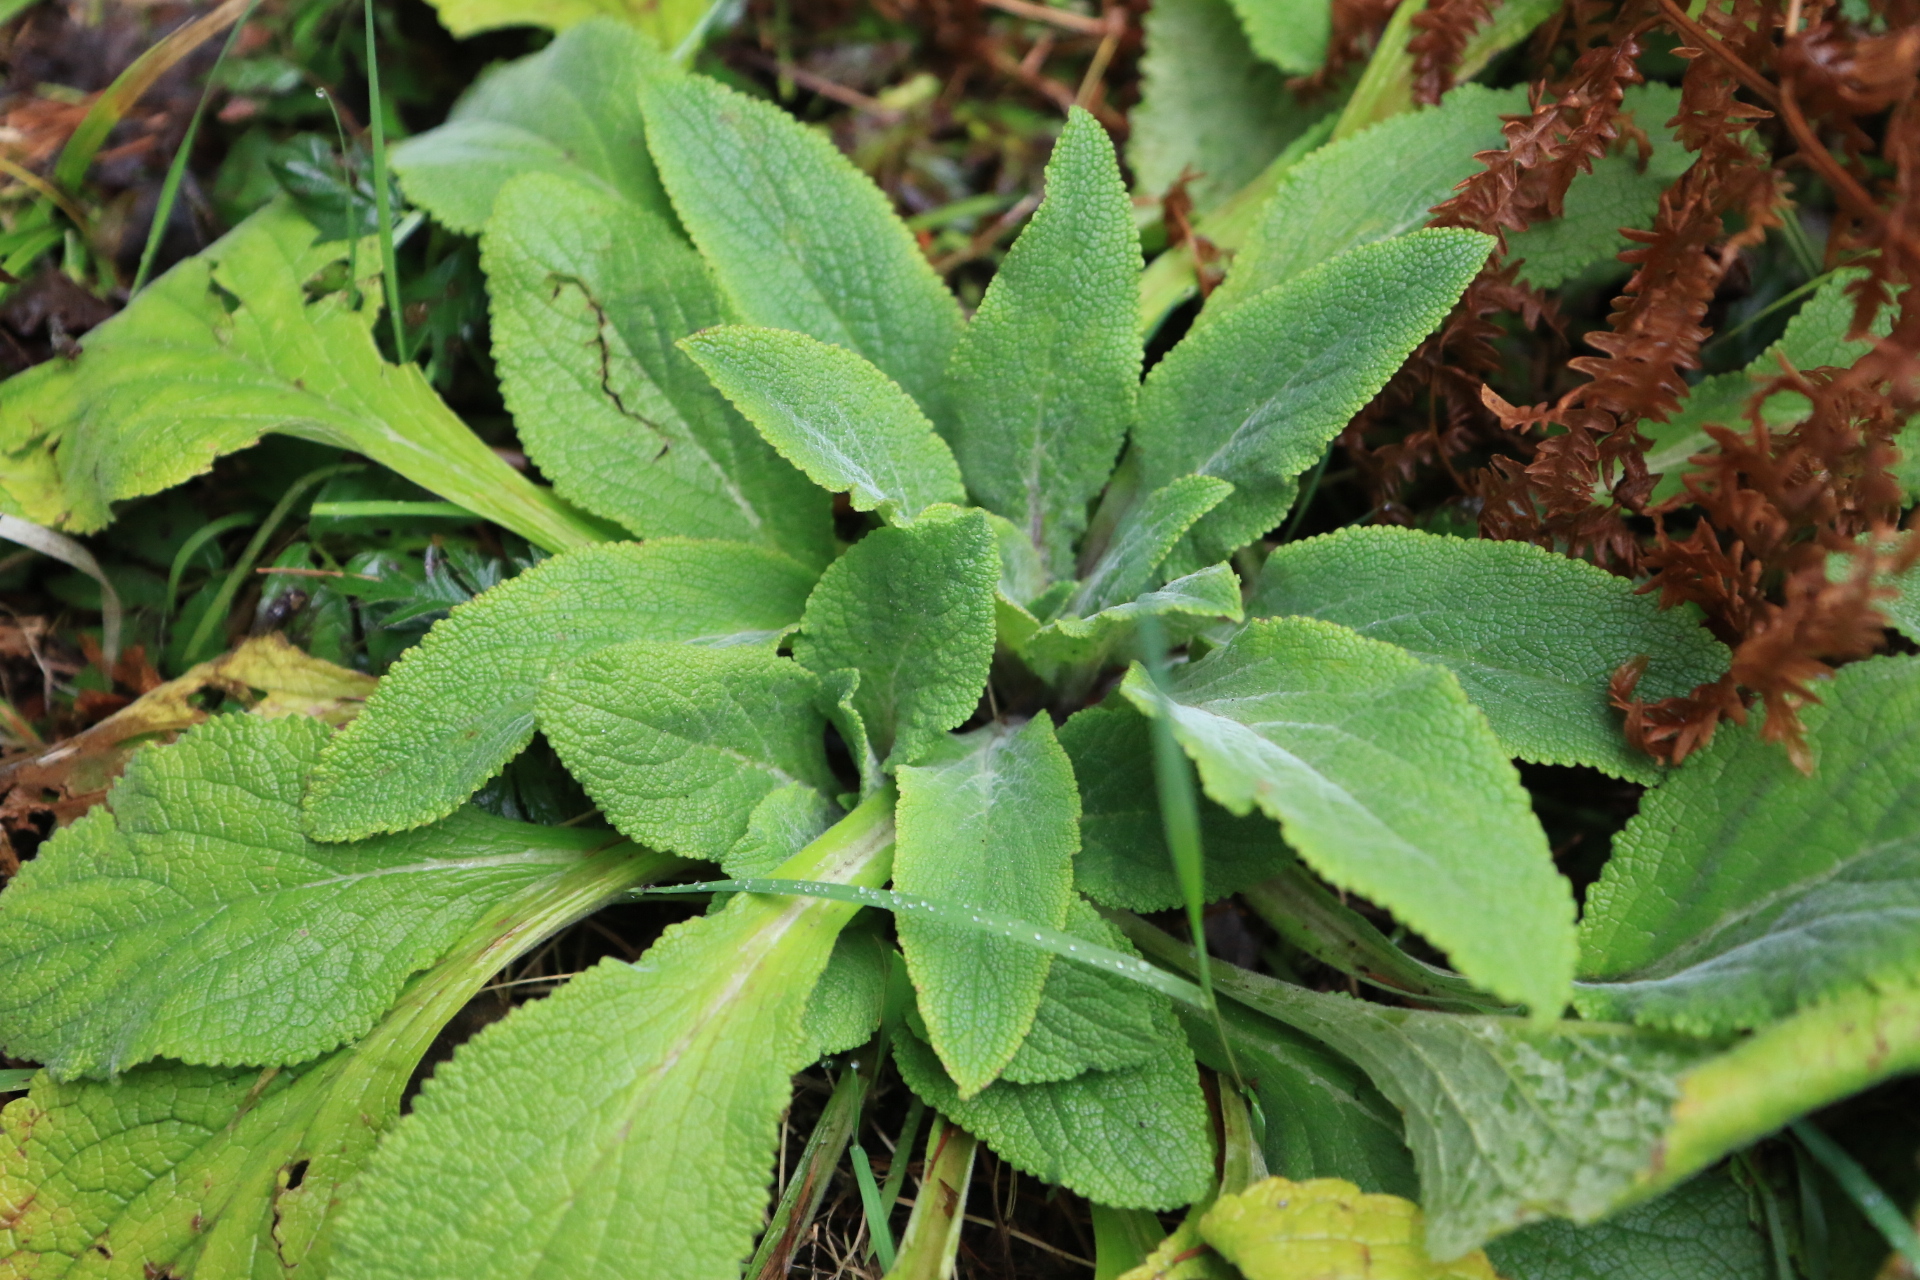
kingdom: Plantae
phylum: Tracheophyta
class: Magnoliopsida
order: Lamiales
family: Plantaginaceae
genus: Digitalis
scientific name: Digitalis purpurea
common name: Foxglove
